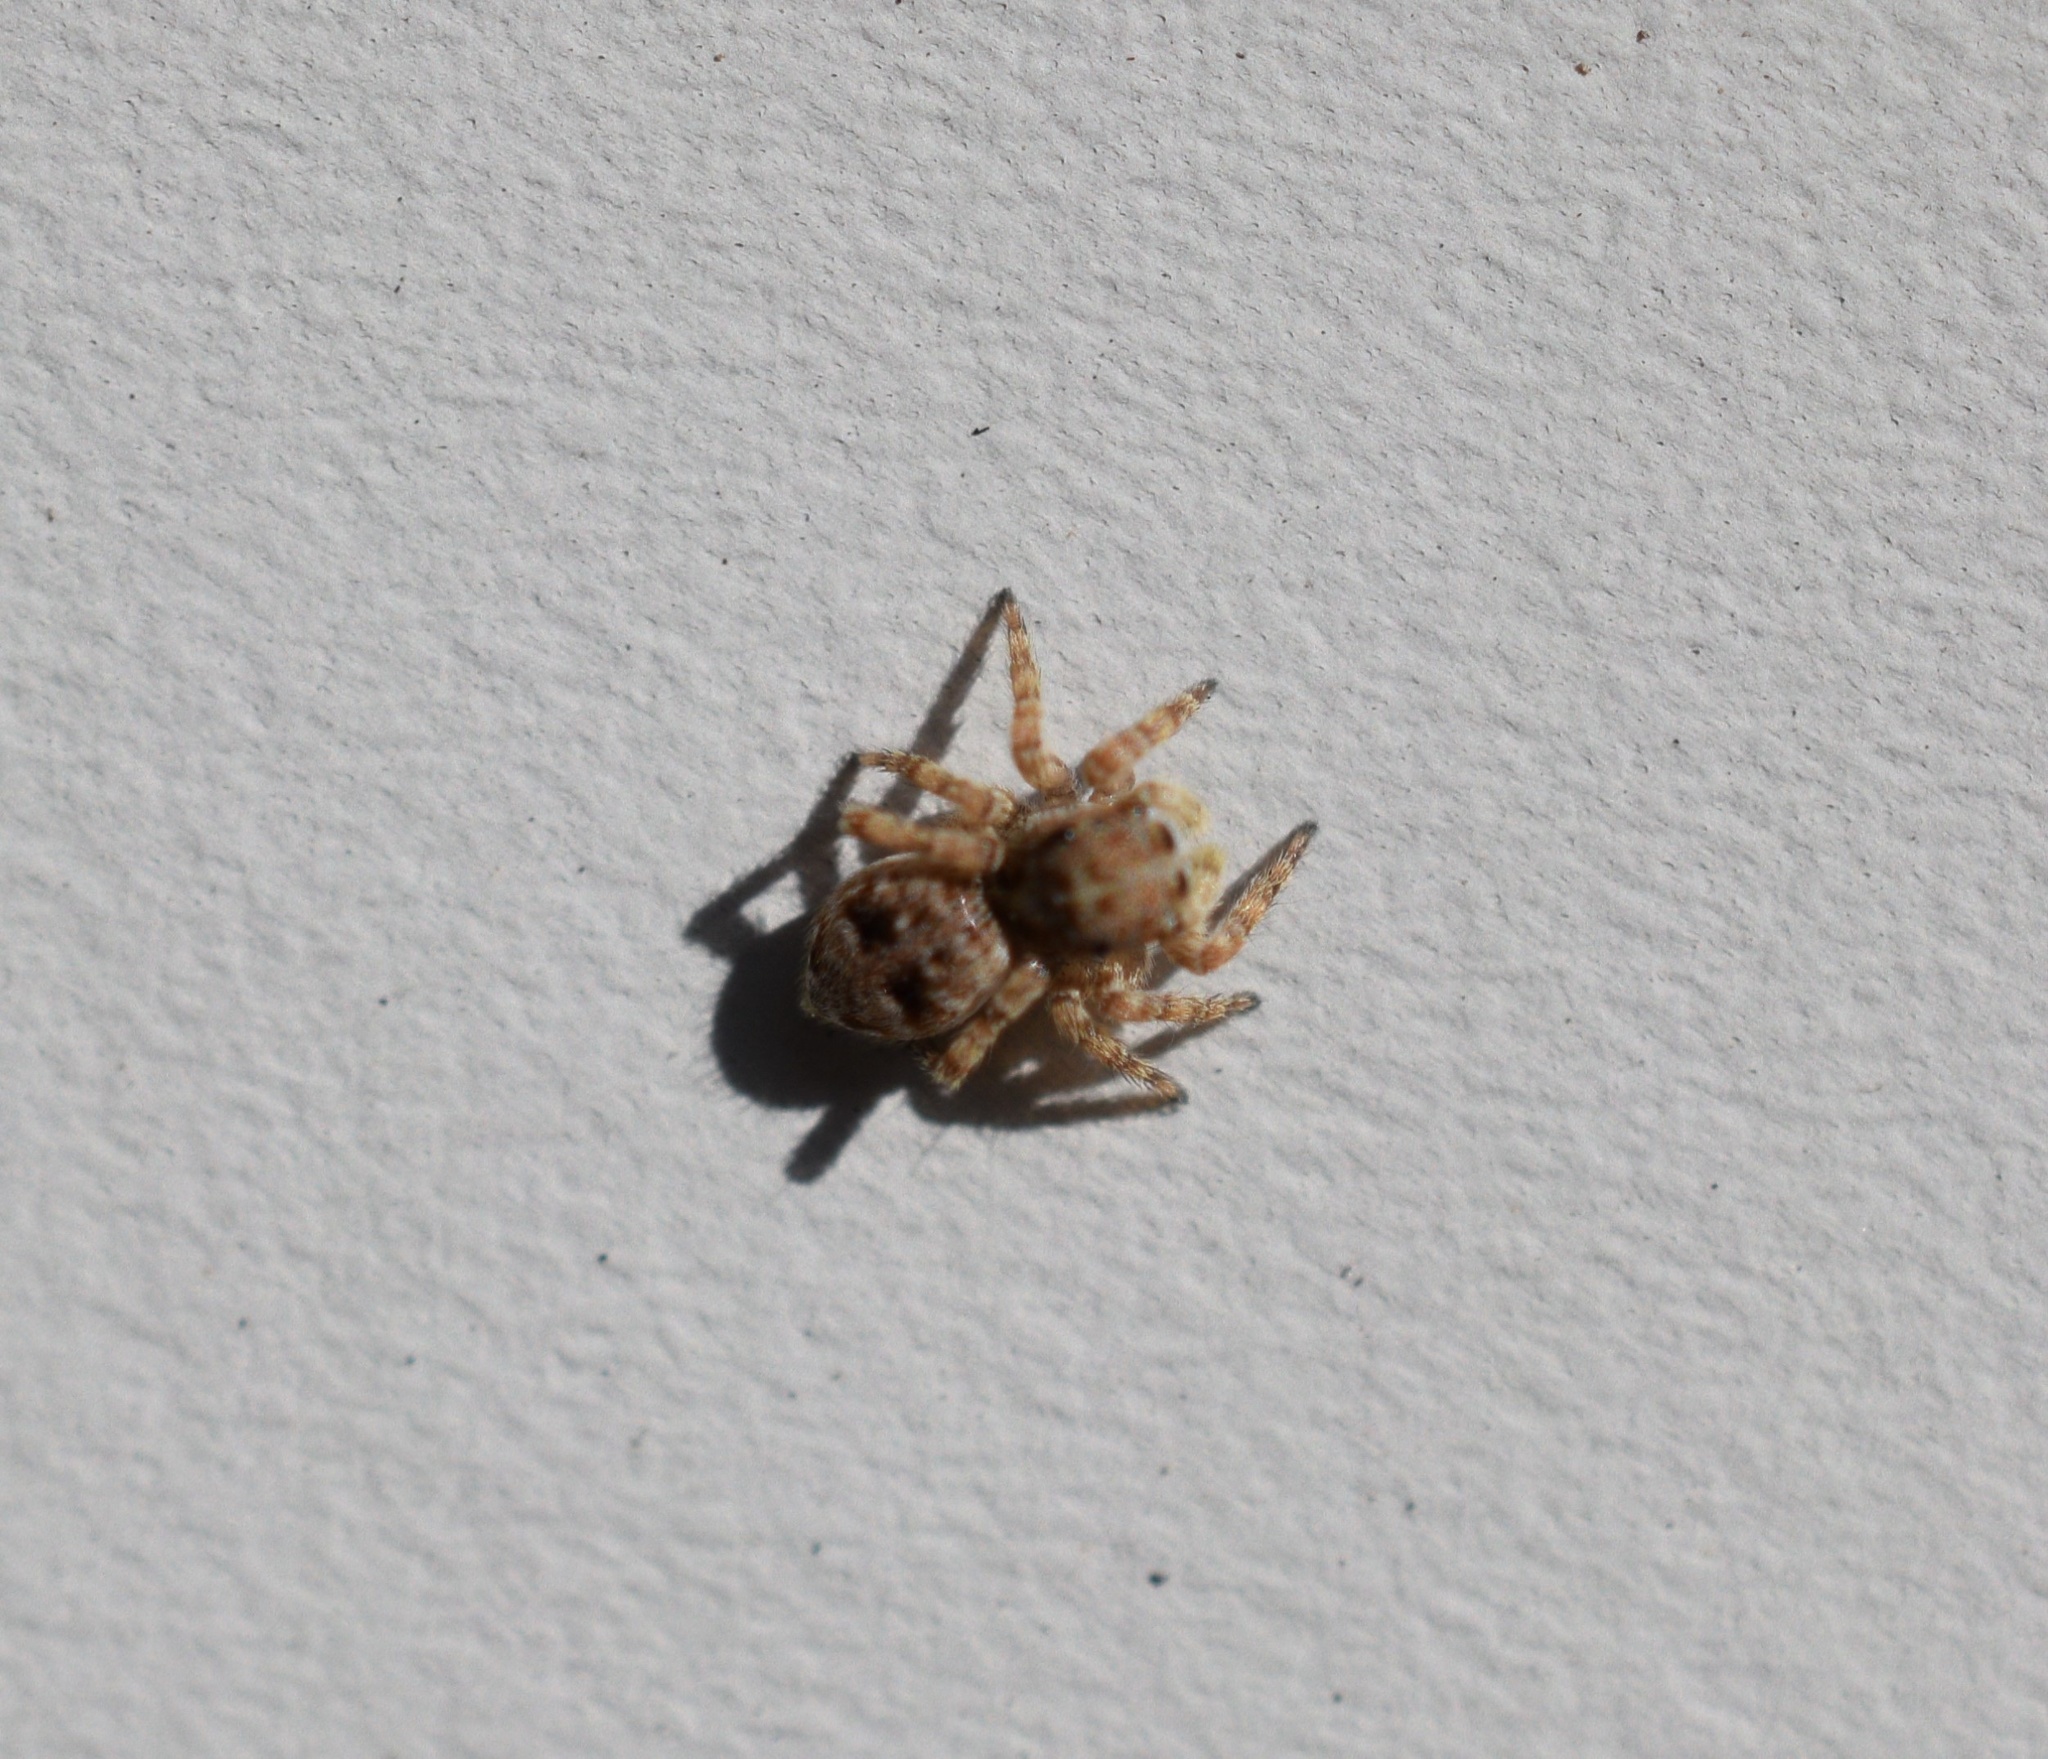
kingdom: Animalia
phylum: Arthropoda
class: Arachnida
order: Araneae
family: Salticidae
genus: Attulus
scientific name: Attulus fasciger
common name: Asiatic wall jumping spider
